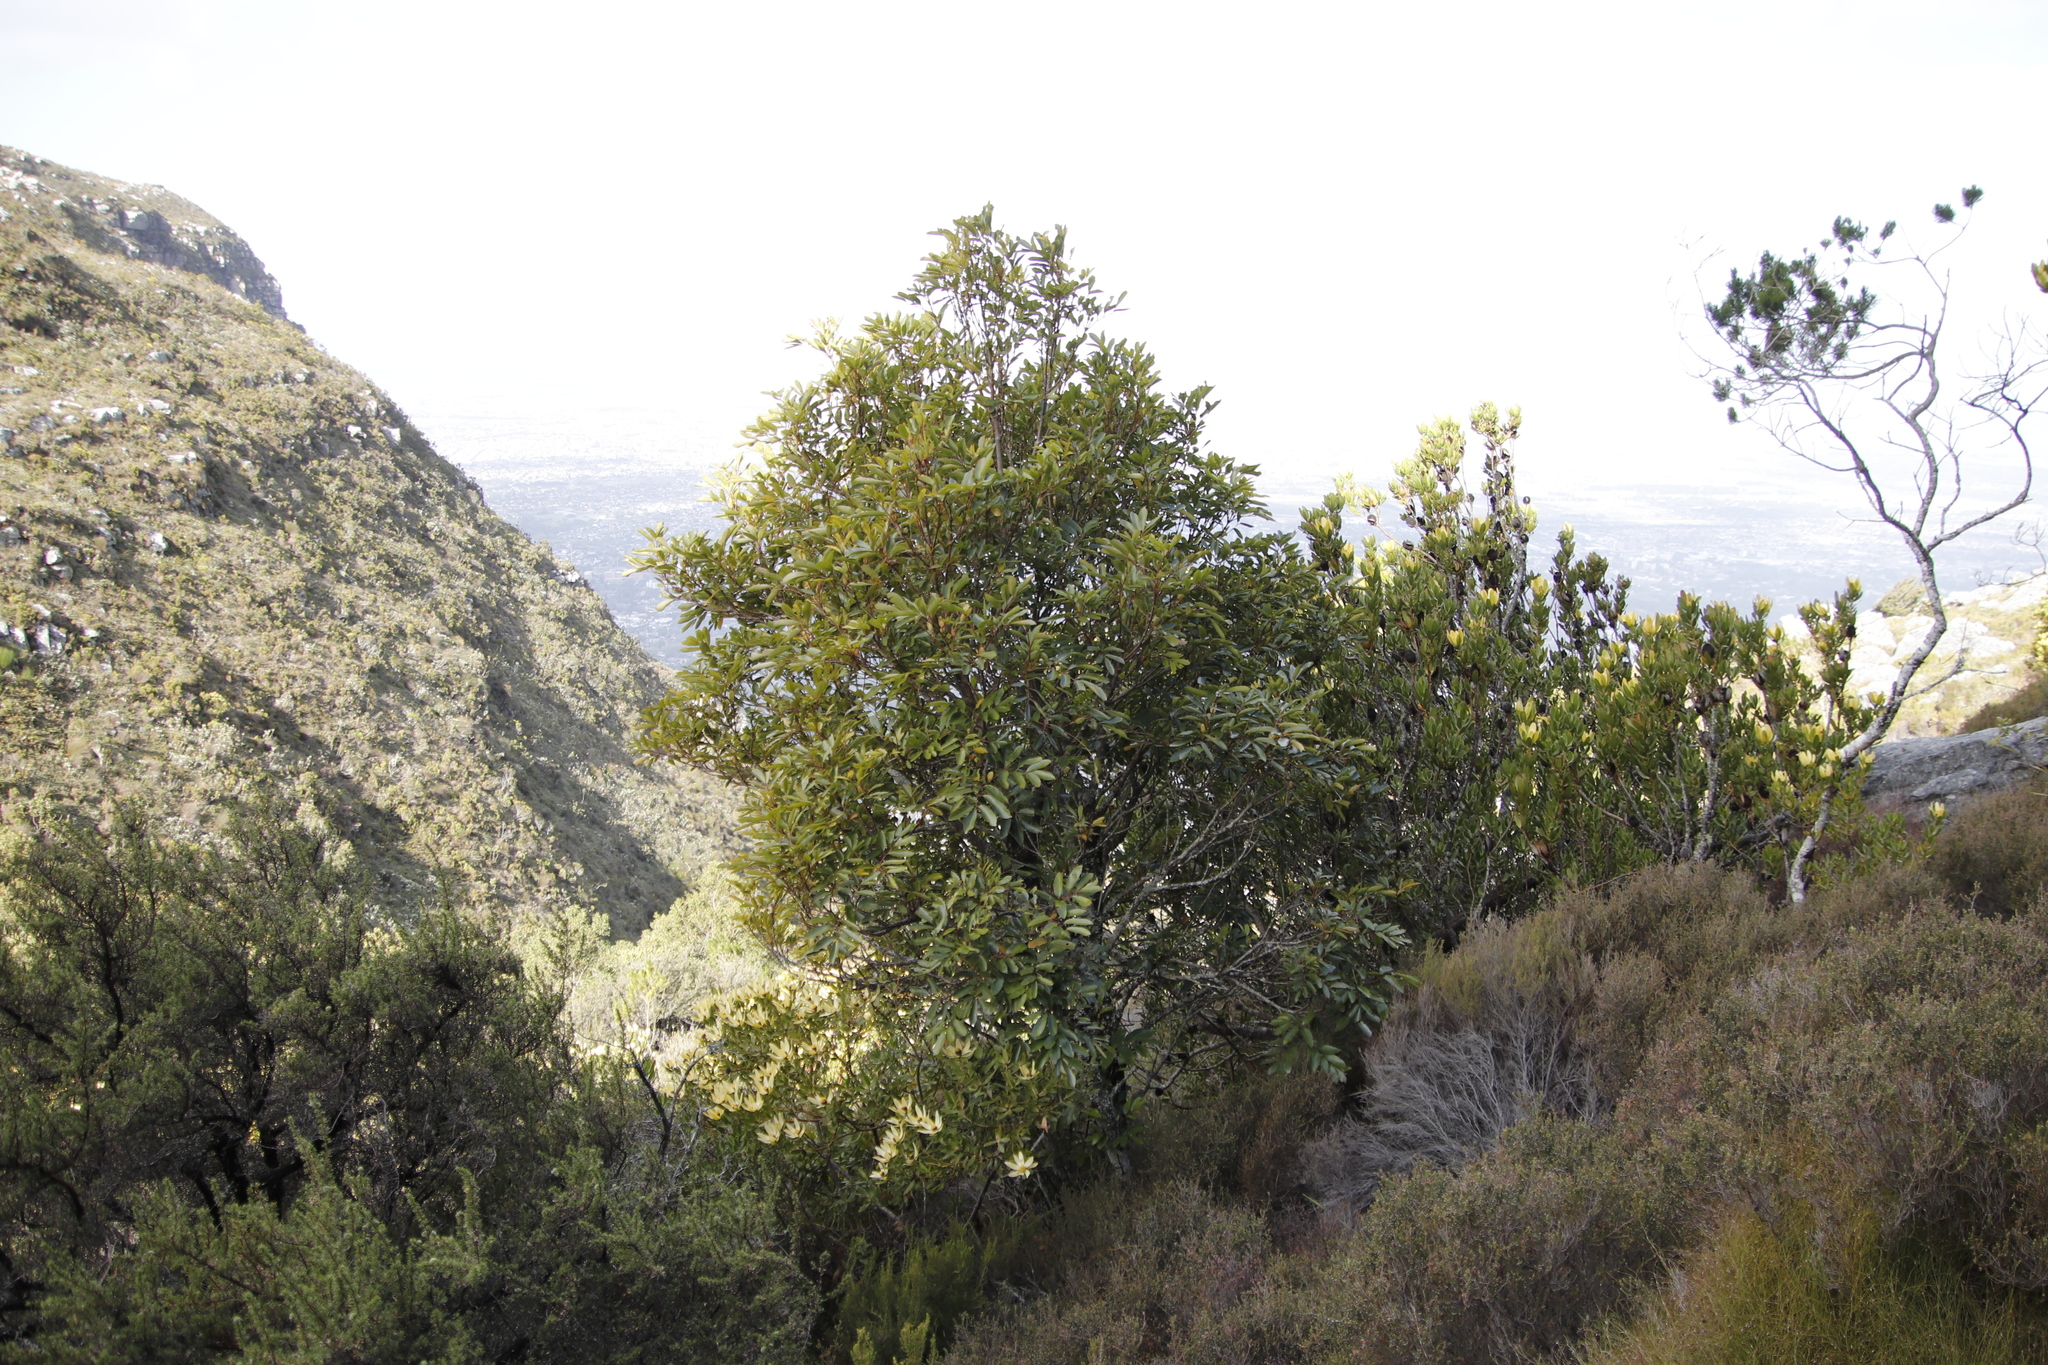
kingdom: Plantae
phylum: Tracheophyta
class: Magnoliopsida
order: Oxalidales
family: Cunoniaceae
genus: Cunonia
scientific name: Cunonia capensis
